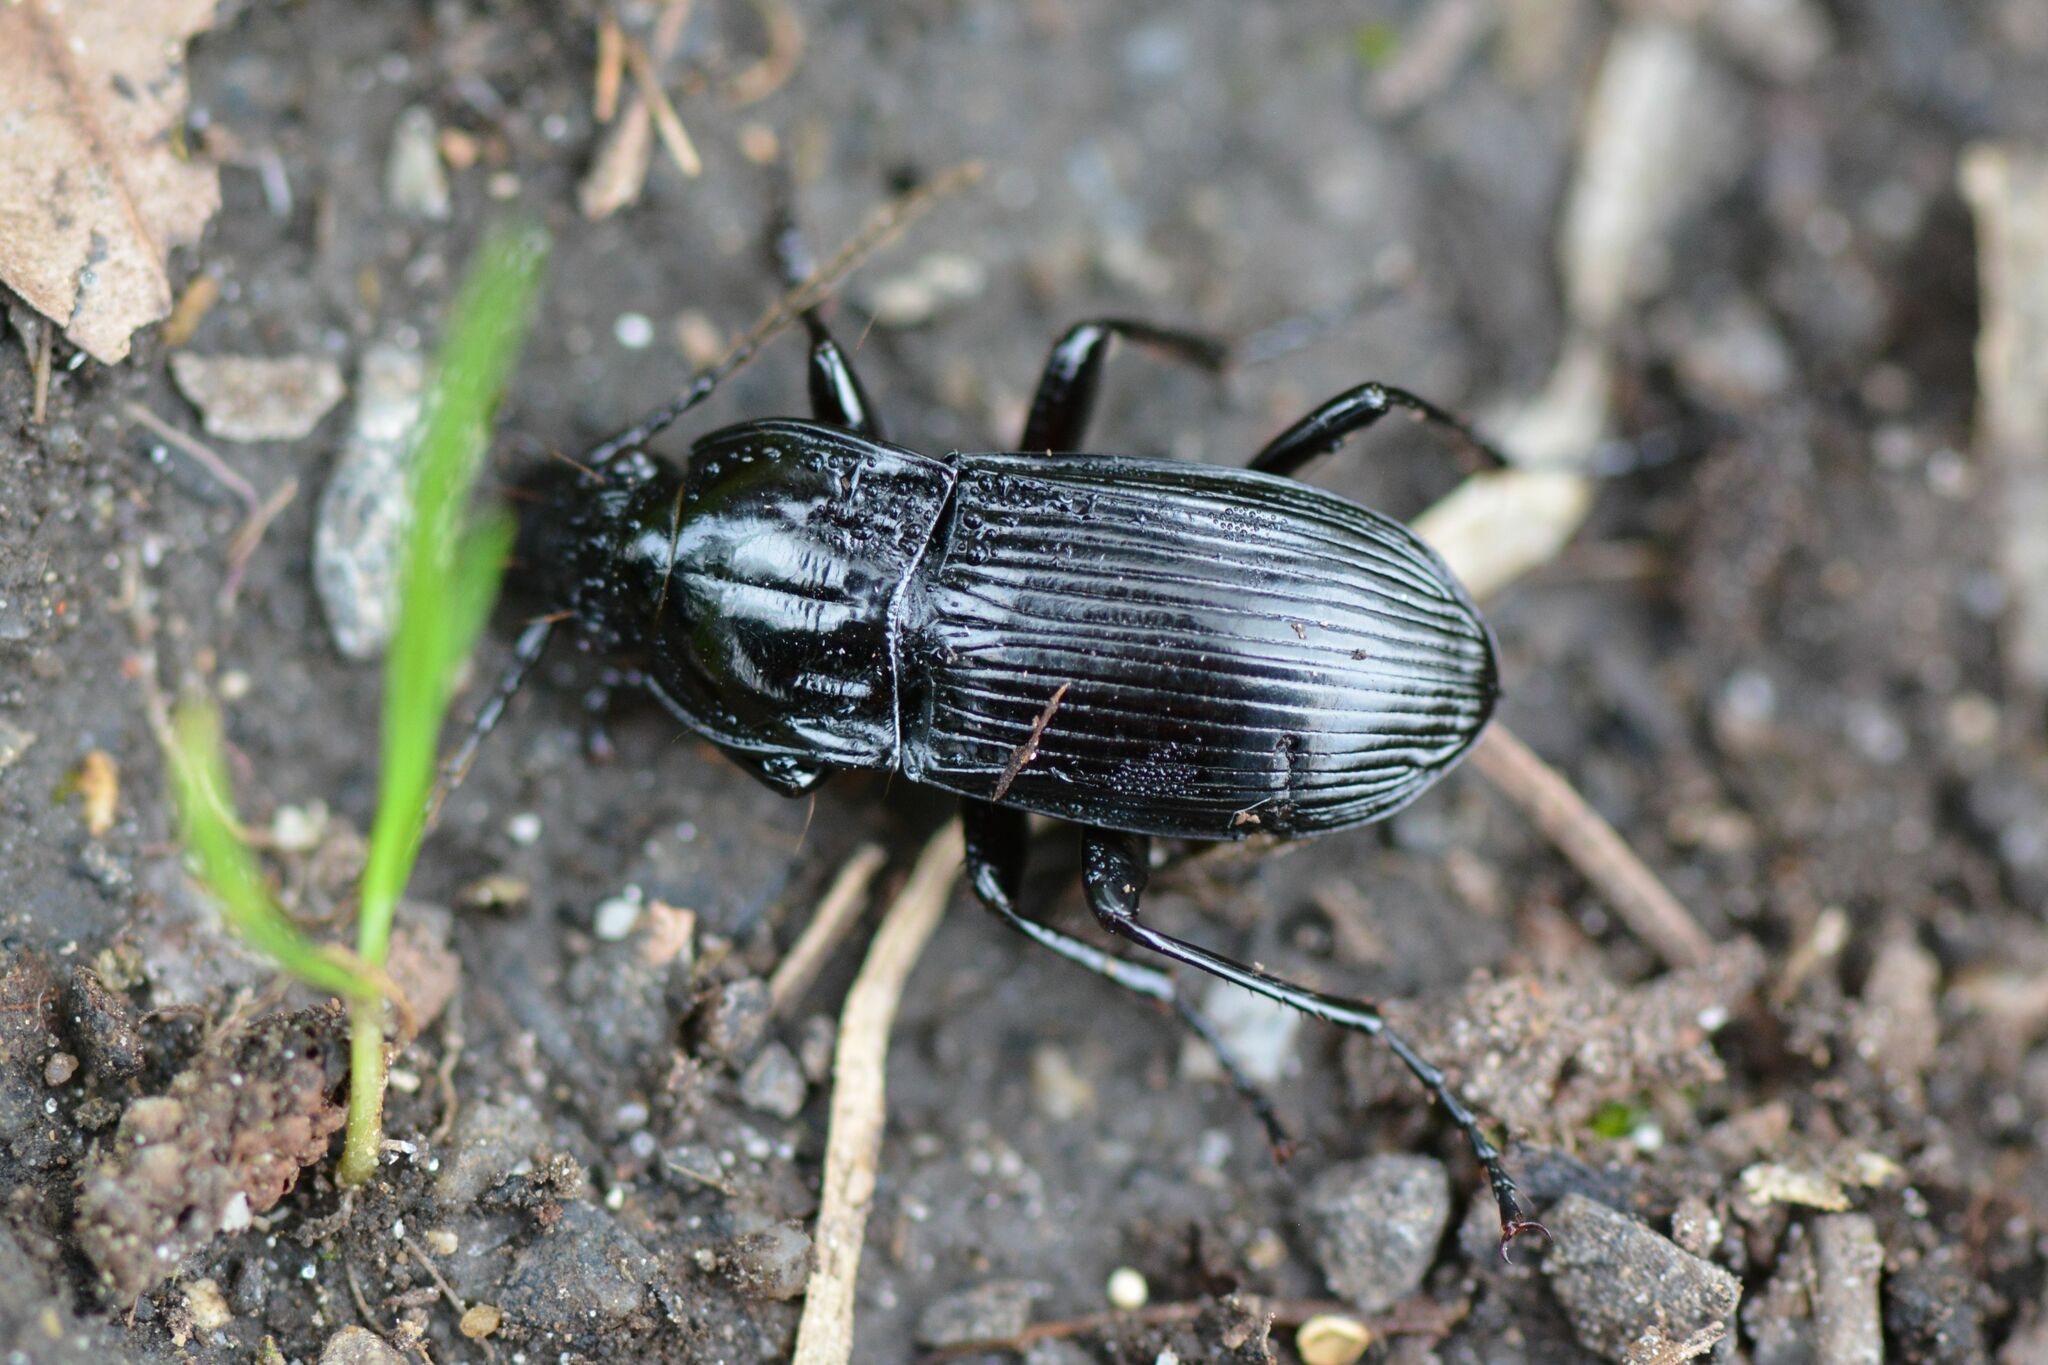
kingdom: Animalia
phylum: Arthropoda
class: Insecta
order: Coleoptera
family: Carabidae
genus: Abax
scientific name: Abax parallelepipedus
